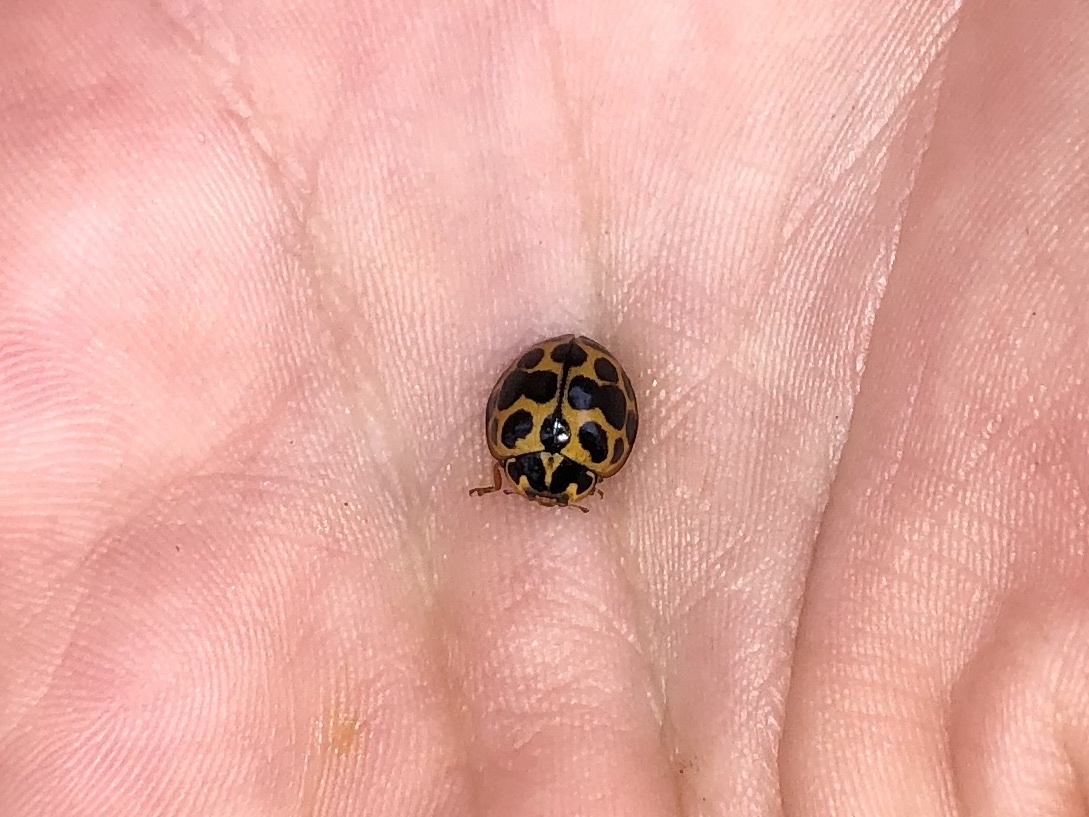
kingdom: Animalia
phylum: Arthropoda
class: Insecta
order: Coleoptera
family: Coccinellidae
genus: Harmonia
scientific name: Harmonia conformis
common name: Common spotted ladybird beetle
